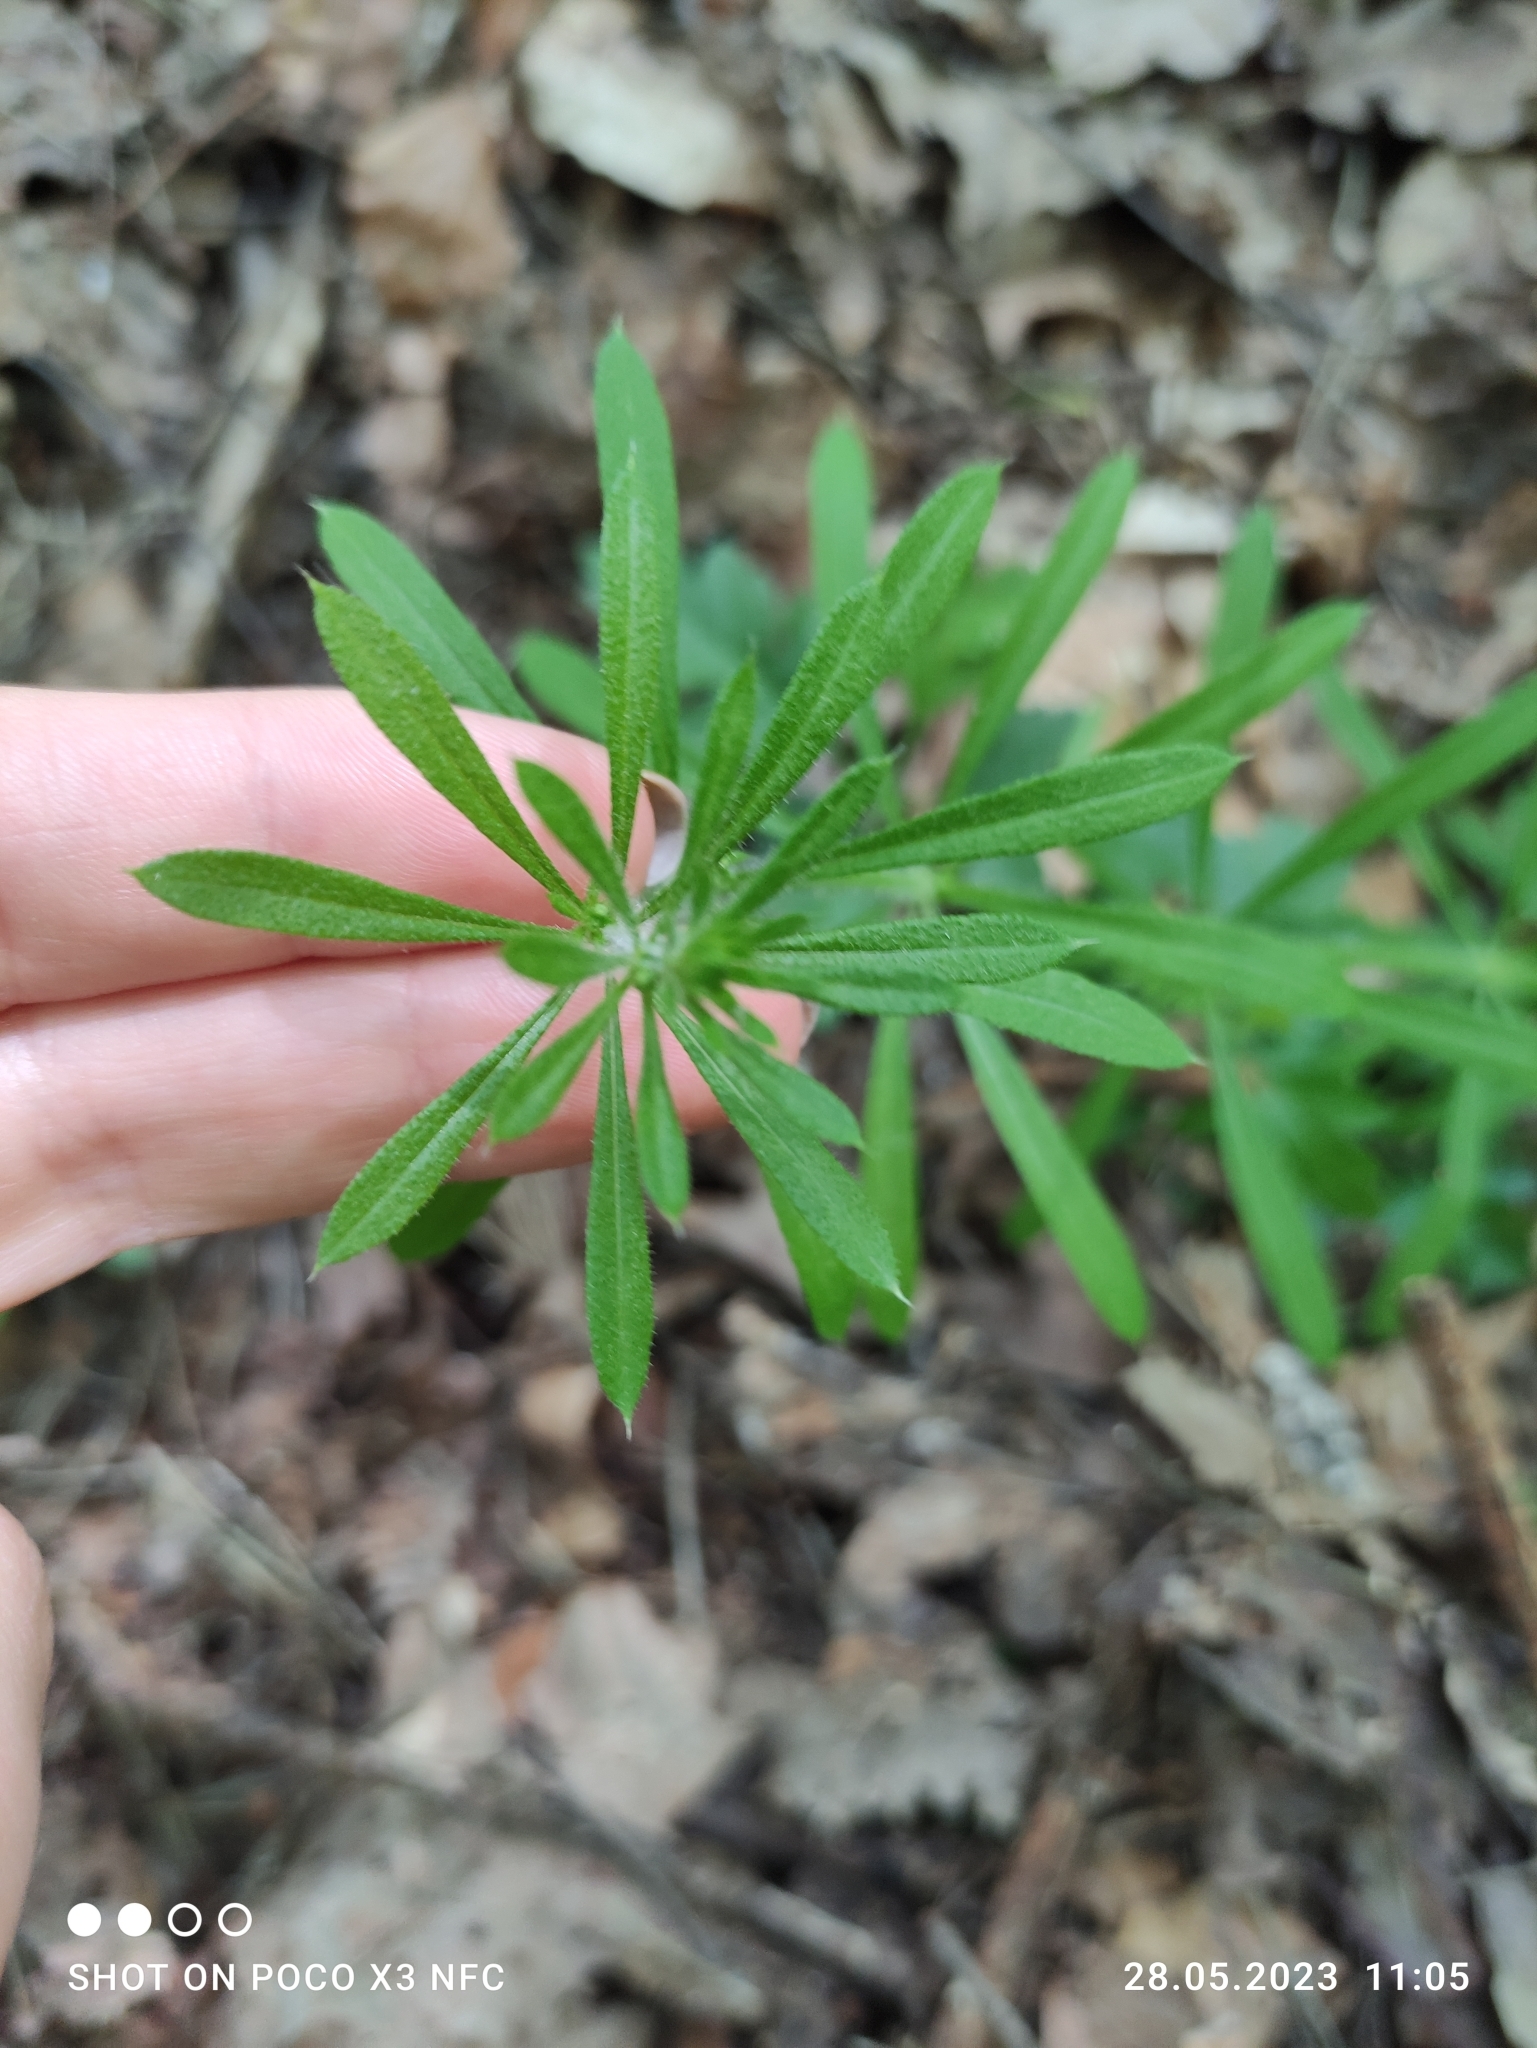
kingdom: Plantae
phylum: Tracheophyta
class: Magnoliopsida
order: Gentianales
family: Rubiaceae
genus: Galium
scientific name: Galium aparine
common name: Cleavers
